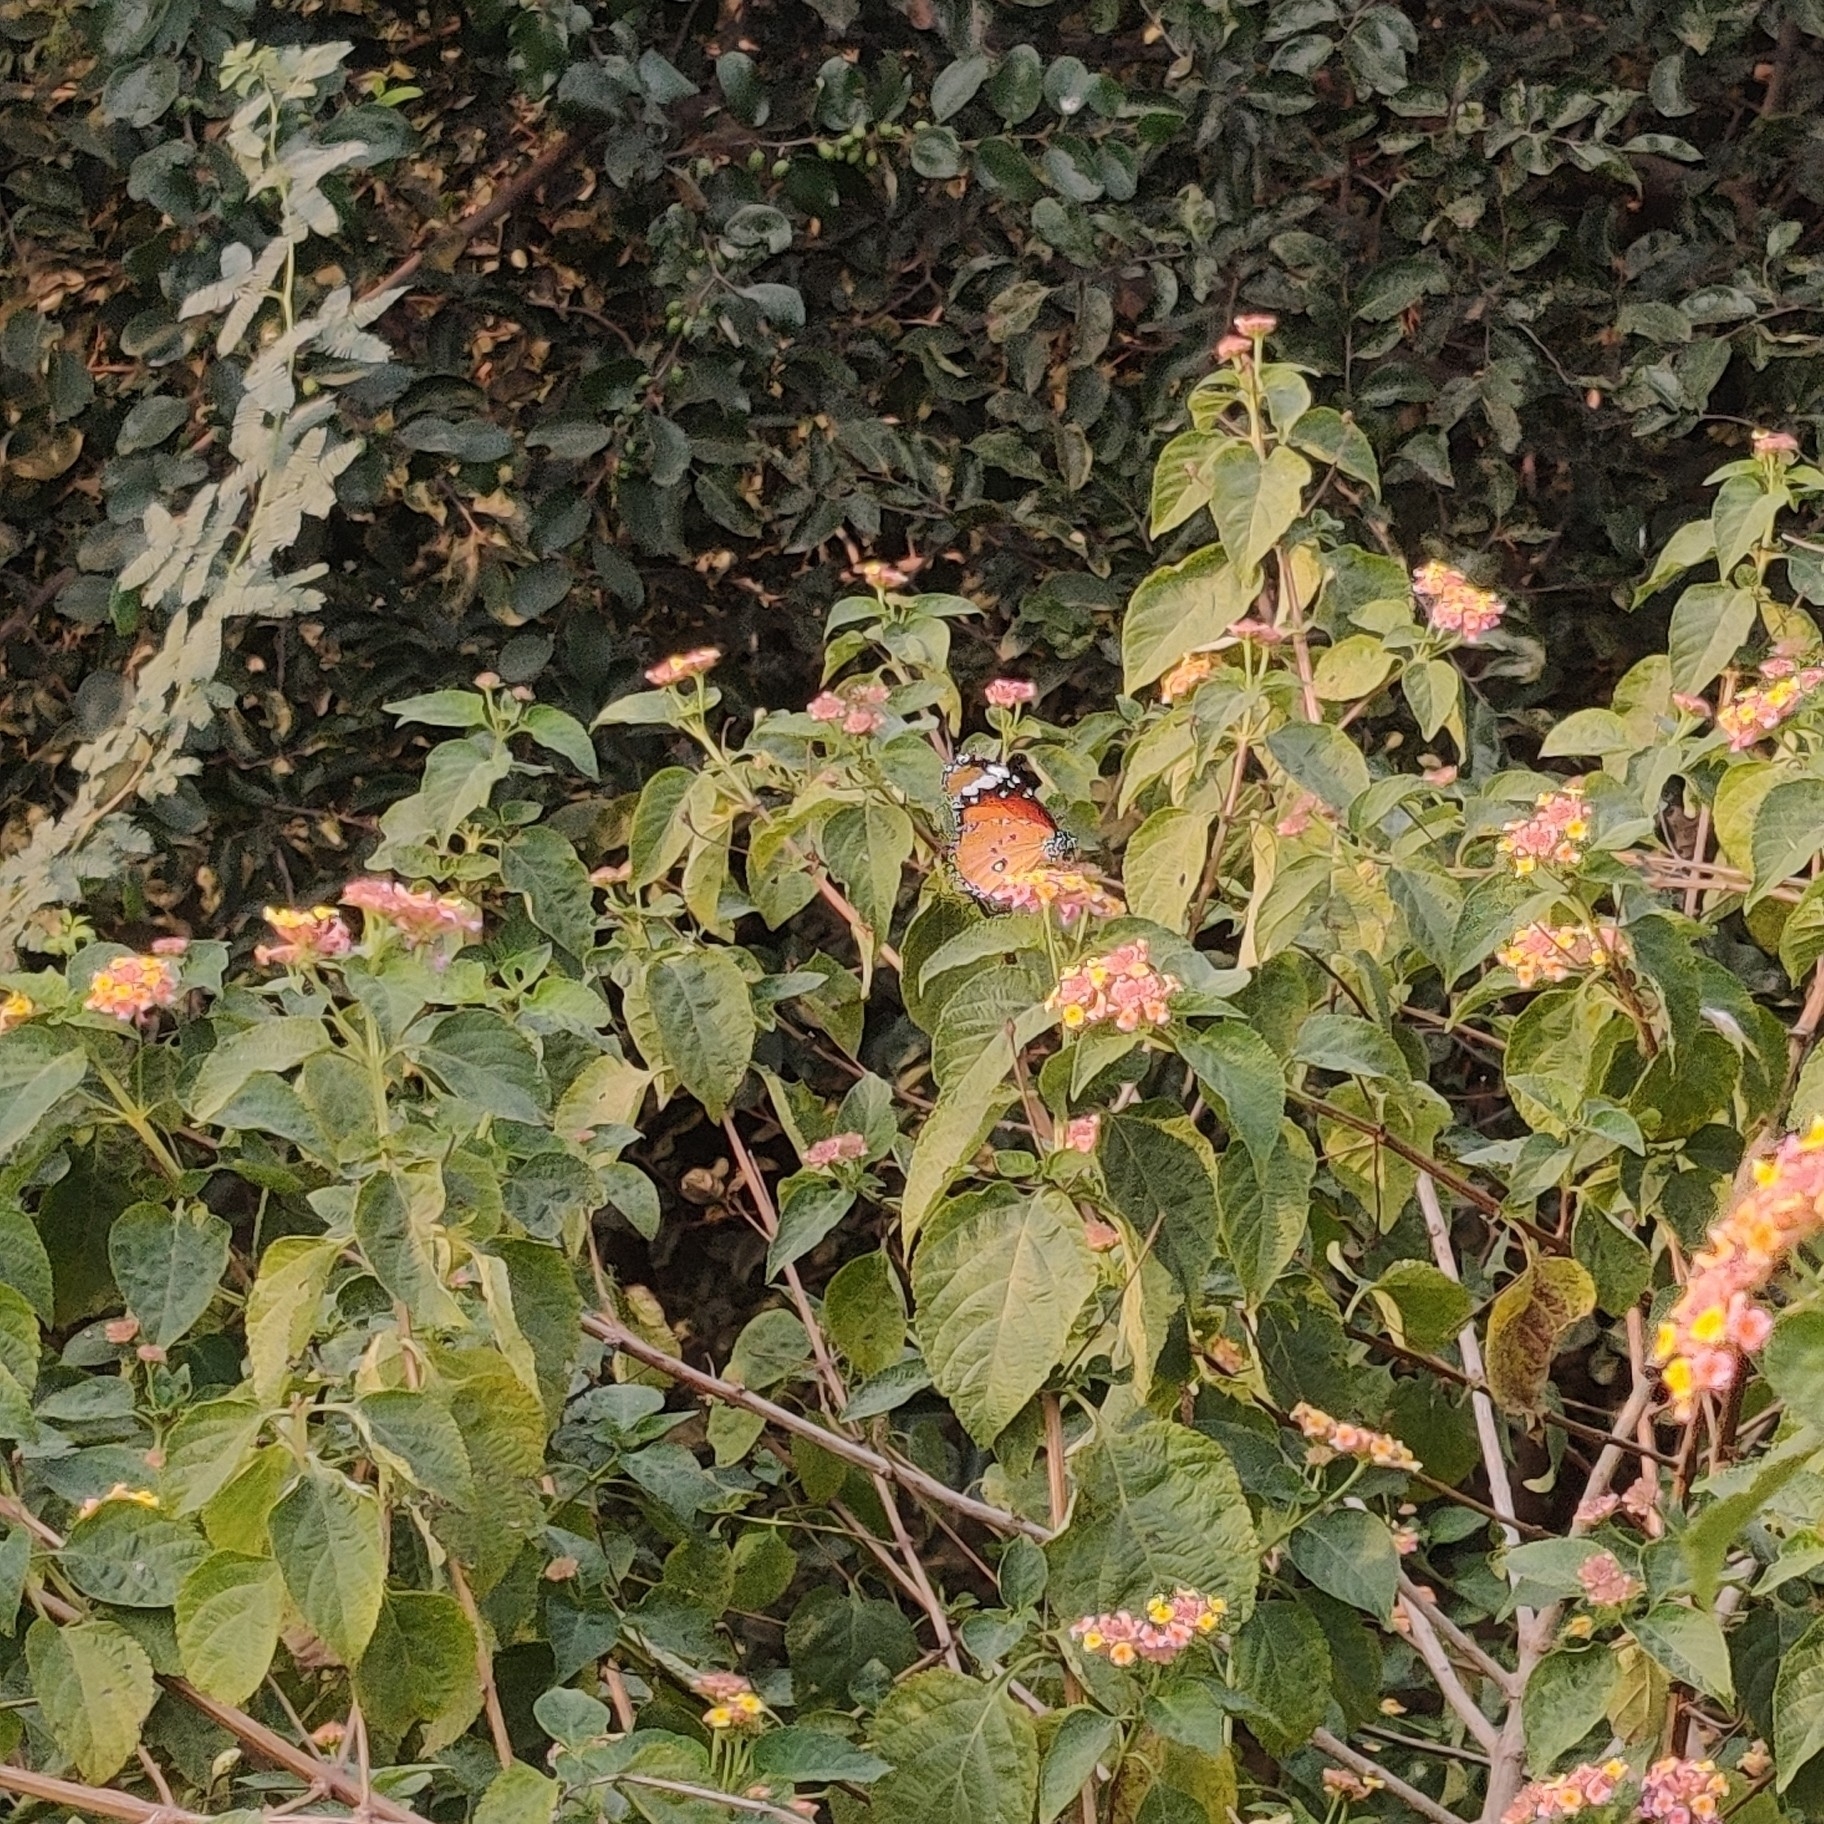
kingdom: Animalia
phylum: Arthropoda
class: Insecta
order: Lepidoptera
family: Nymphalidae
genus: Danaus
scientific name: Danaus chrysippus
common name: Plain tiger
